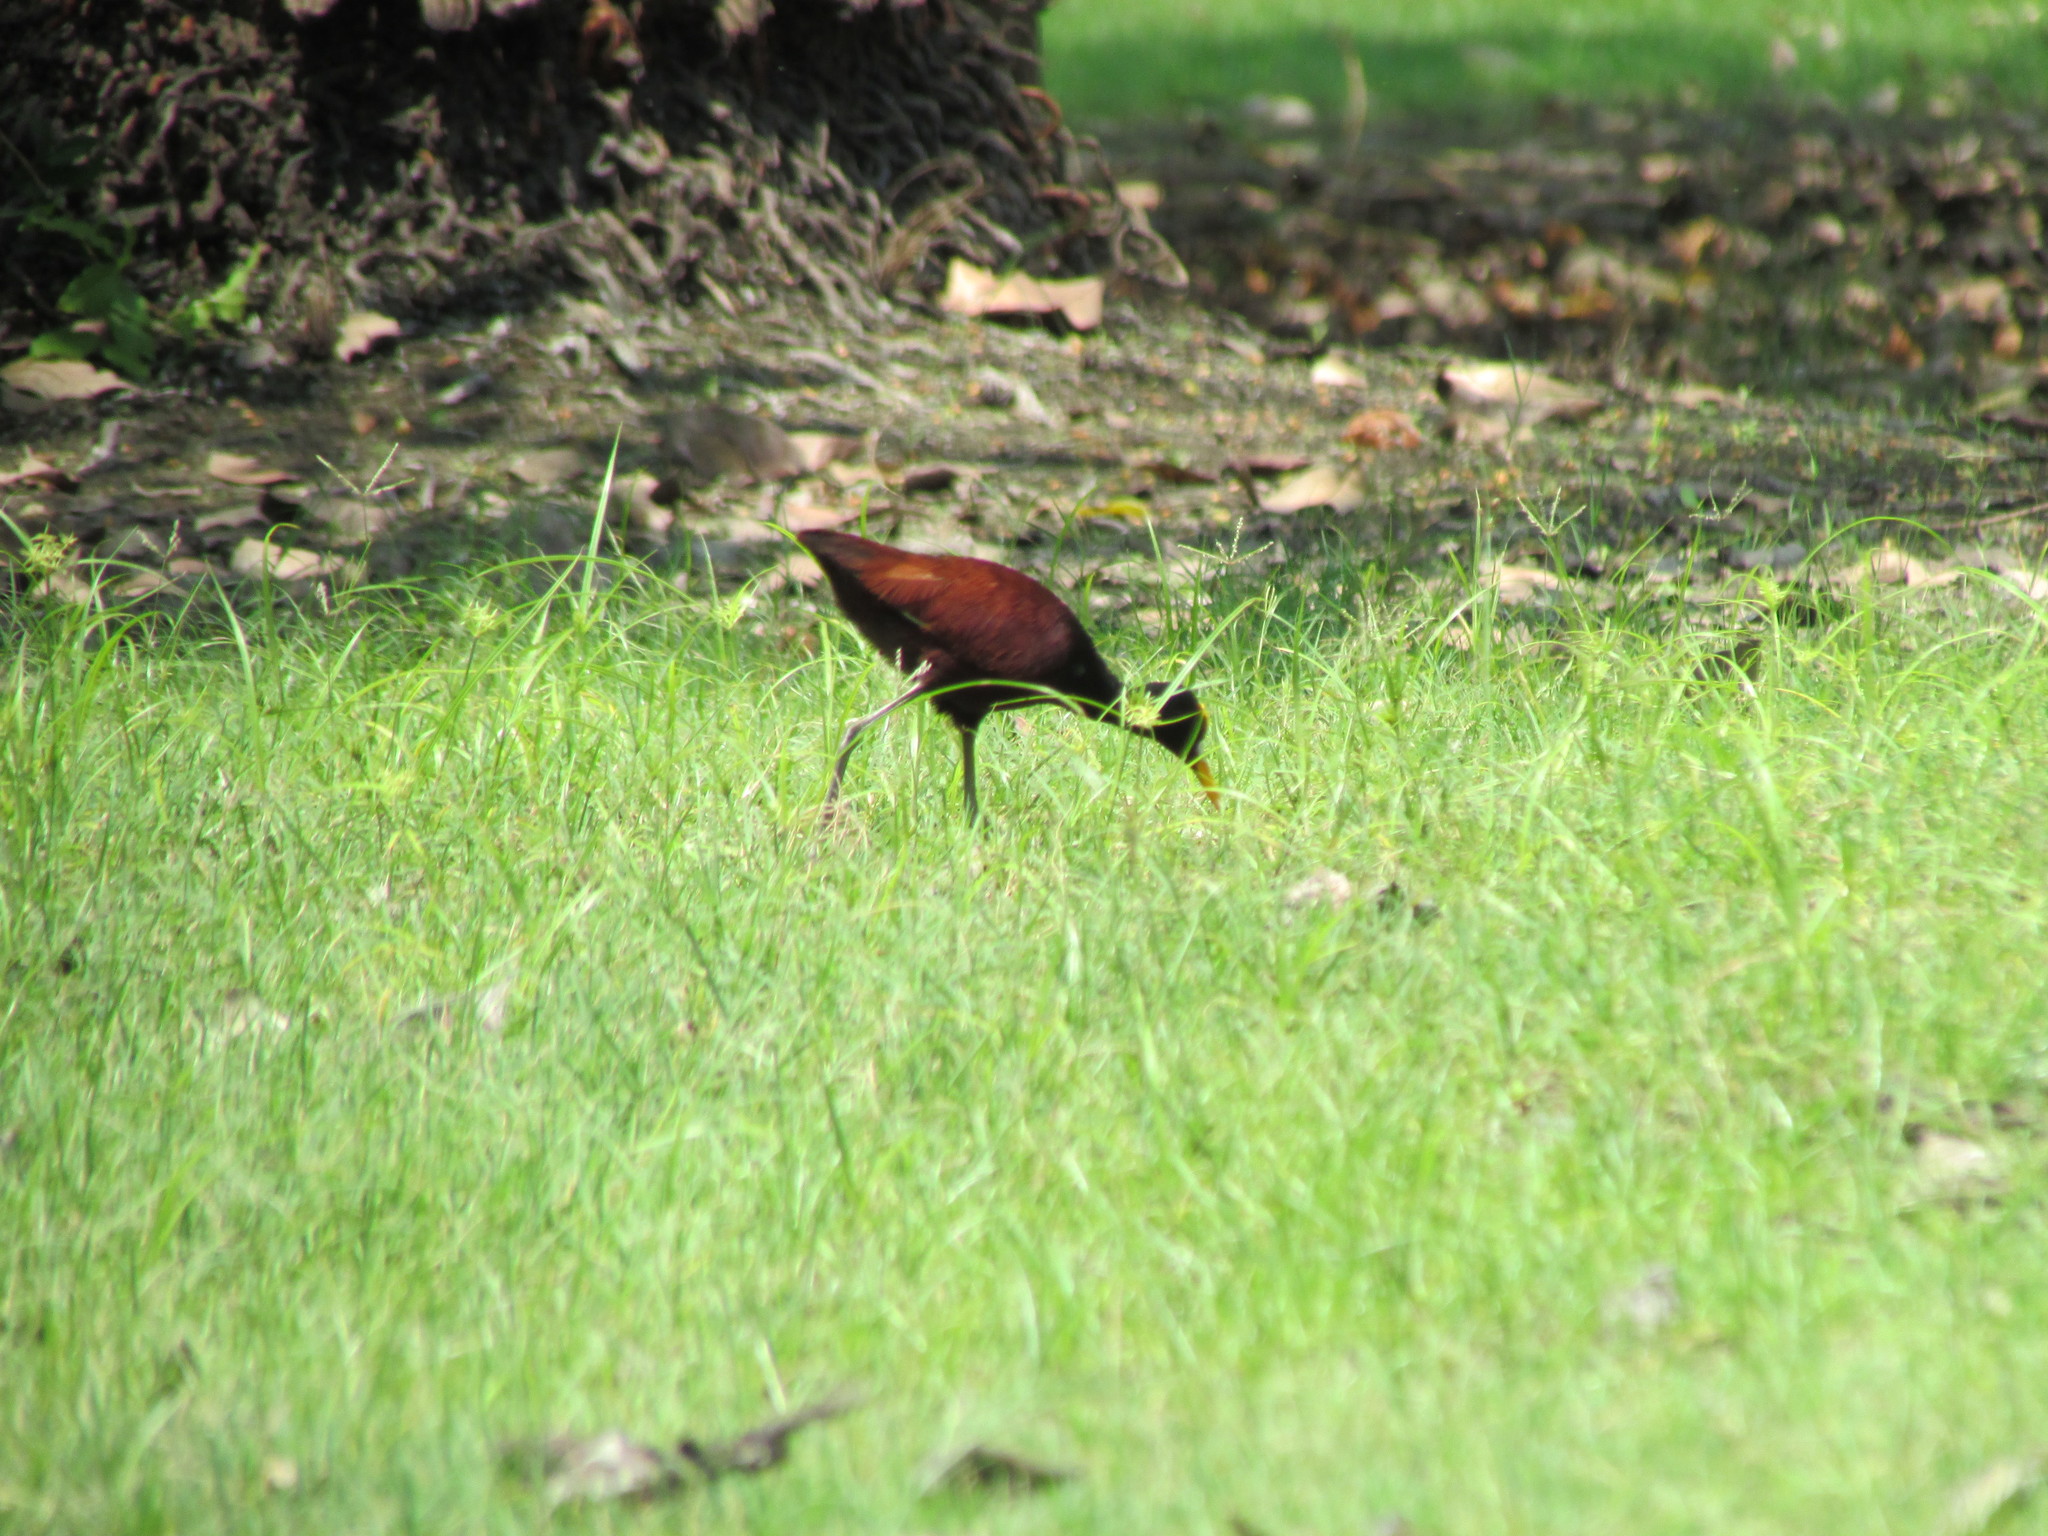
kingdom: Animalia
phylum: Chordata
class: Aves
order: Charadriiformes
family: Jacanidae
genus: Jacana
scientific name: Jacana spinosa
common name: Northern jacana
